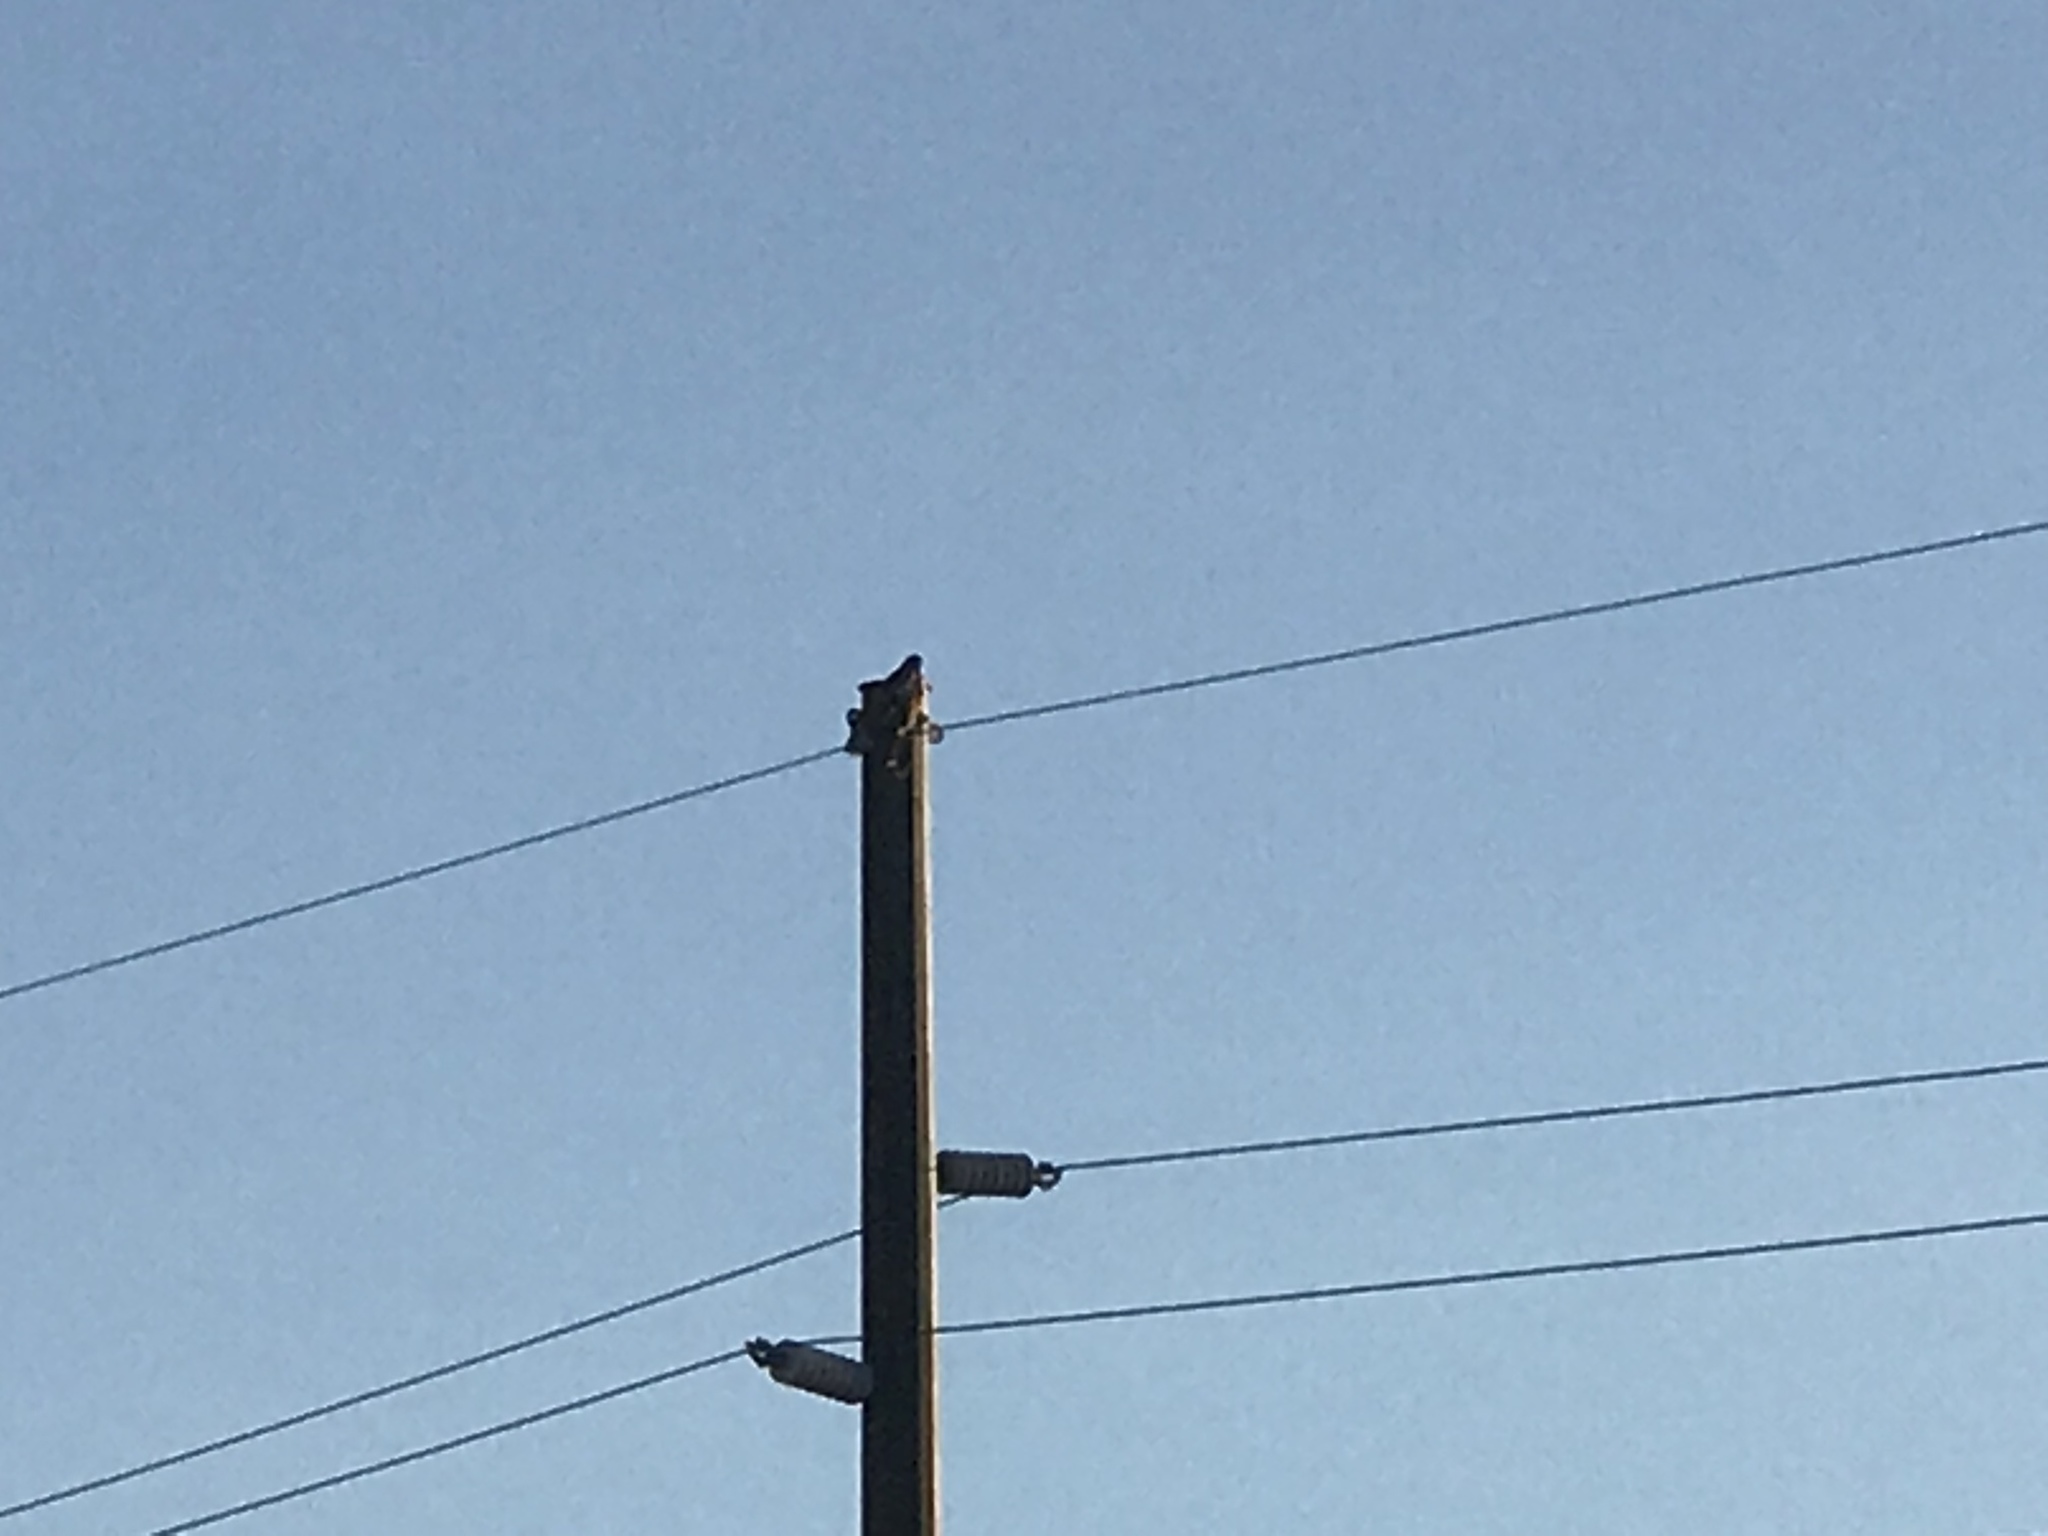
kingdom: Animalia
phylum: Chordata
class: Aves
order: Accipitriformes
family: Accipitridae
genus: Buteo
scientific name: Buteo jamaicensis
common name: Red-tailed hawk
